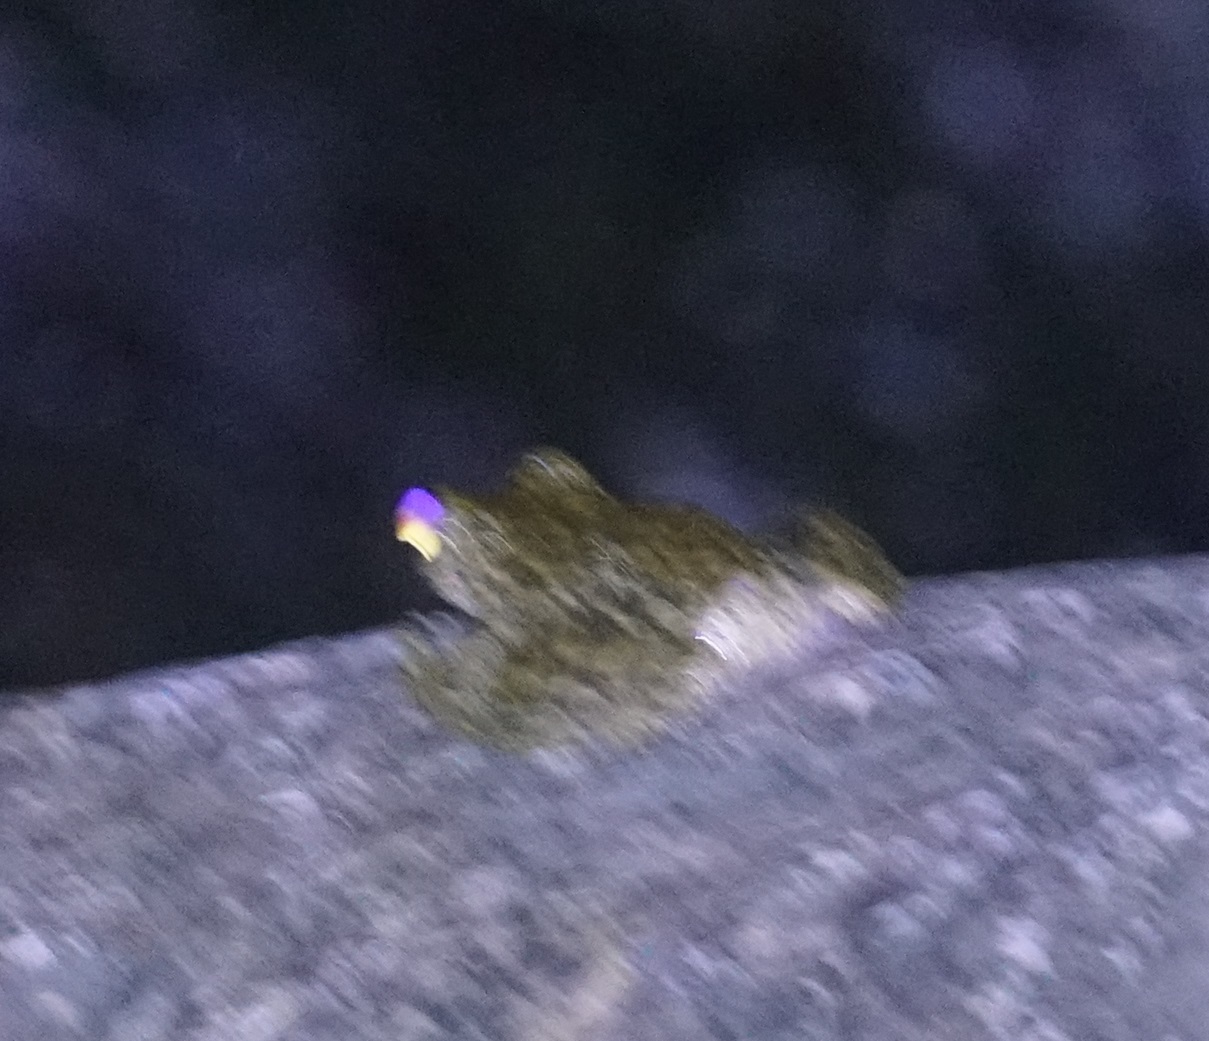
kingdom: Animalia
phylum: Chordata
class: Amphibia
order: Anura
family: Pelodryadidae
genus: Ranoidea
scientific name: Ranoidea nannotis
